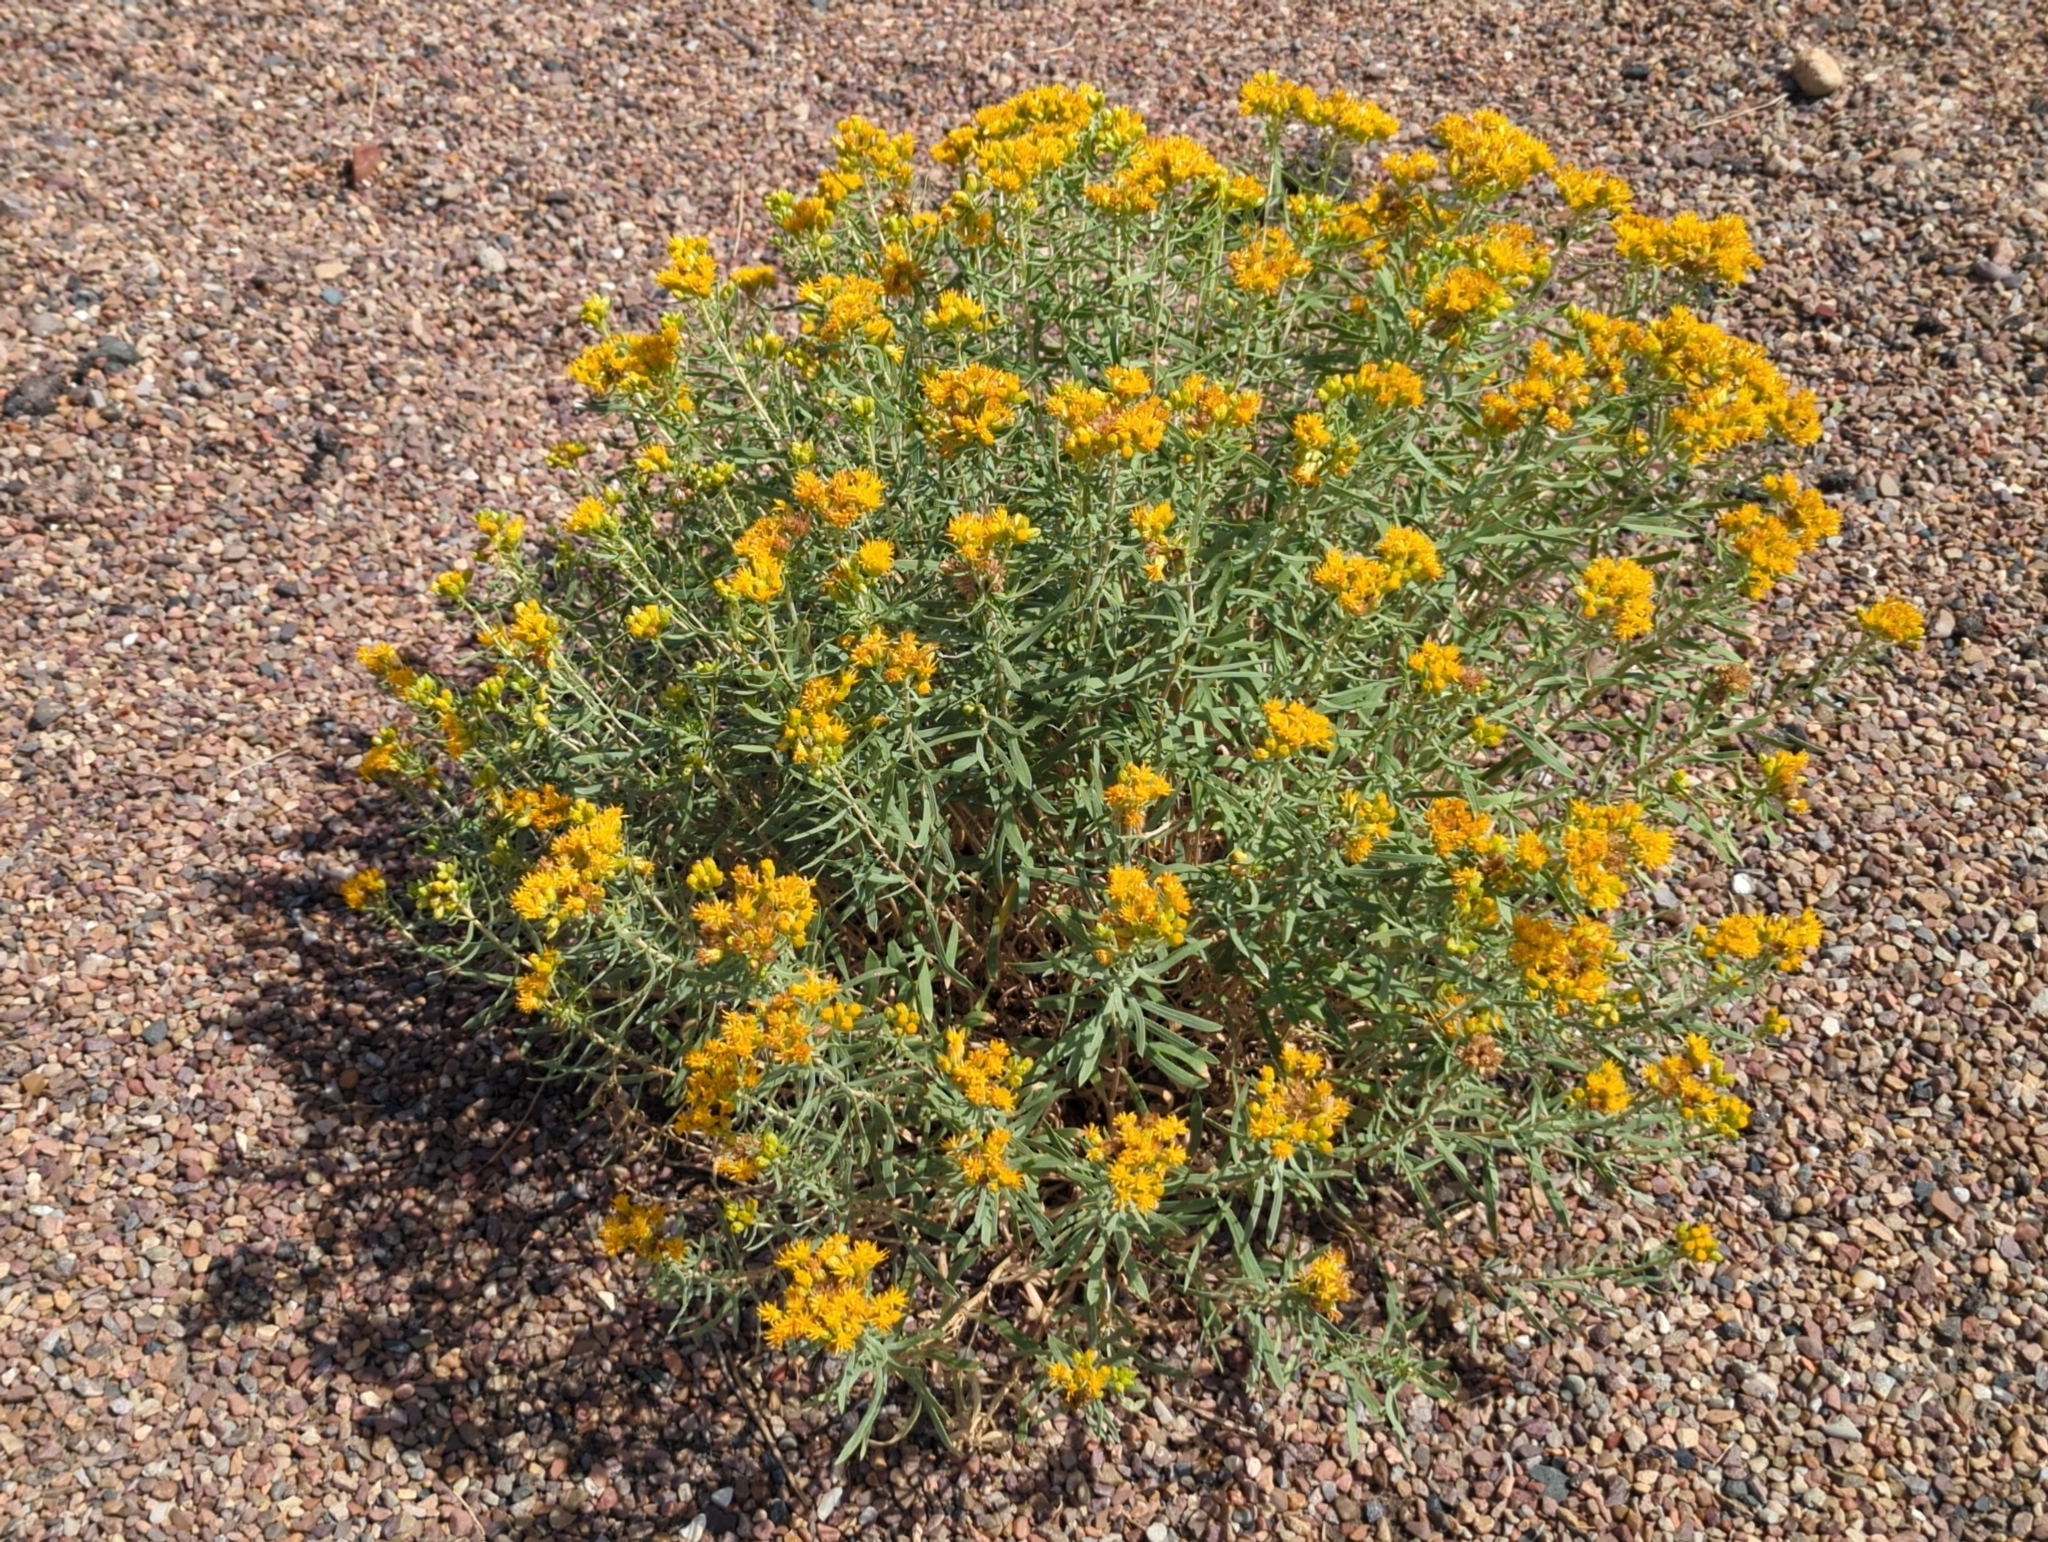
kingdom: Plantae
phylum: Tracheophyta
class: Magnoliopsida
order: Asterales
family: Asteraceae
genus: Isocoma
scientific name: Isocoma pluriflora
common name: Southern jimmyweed
